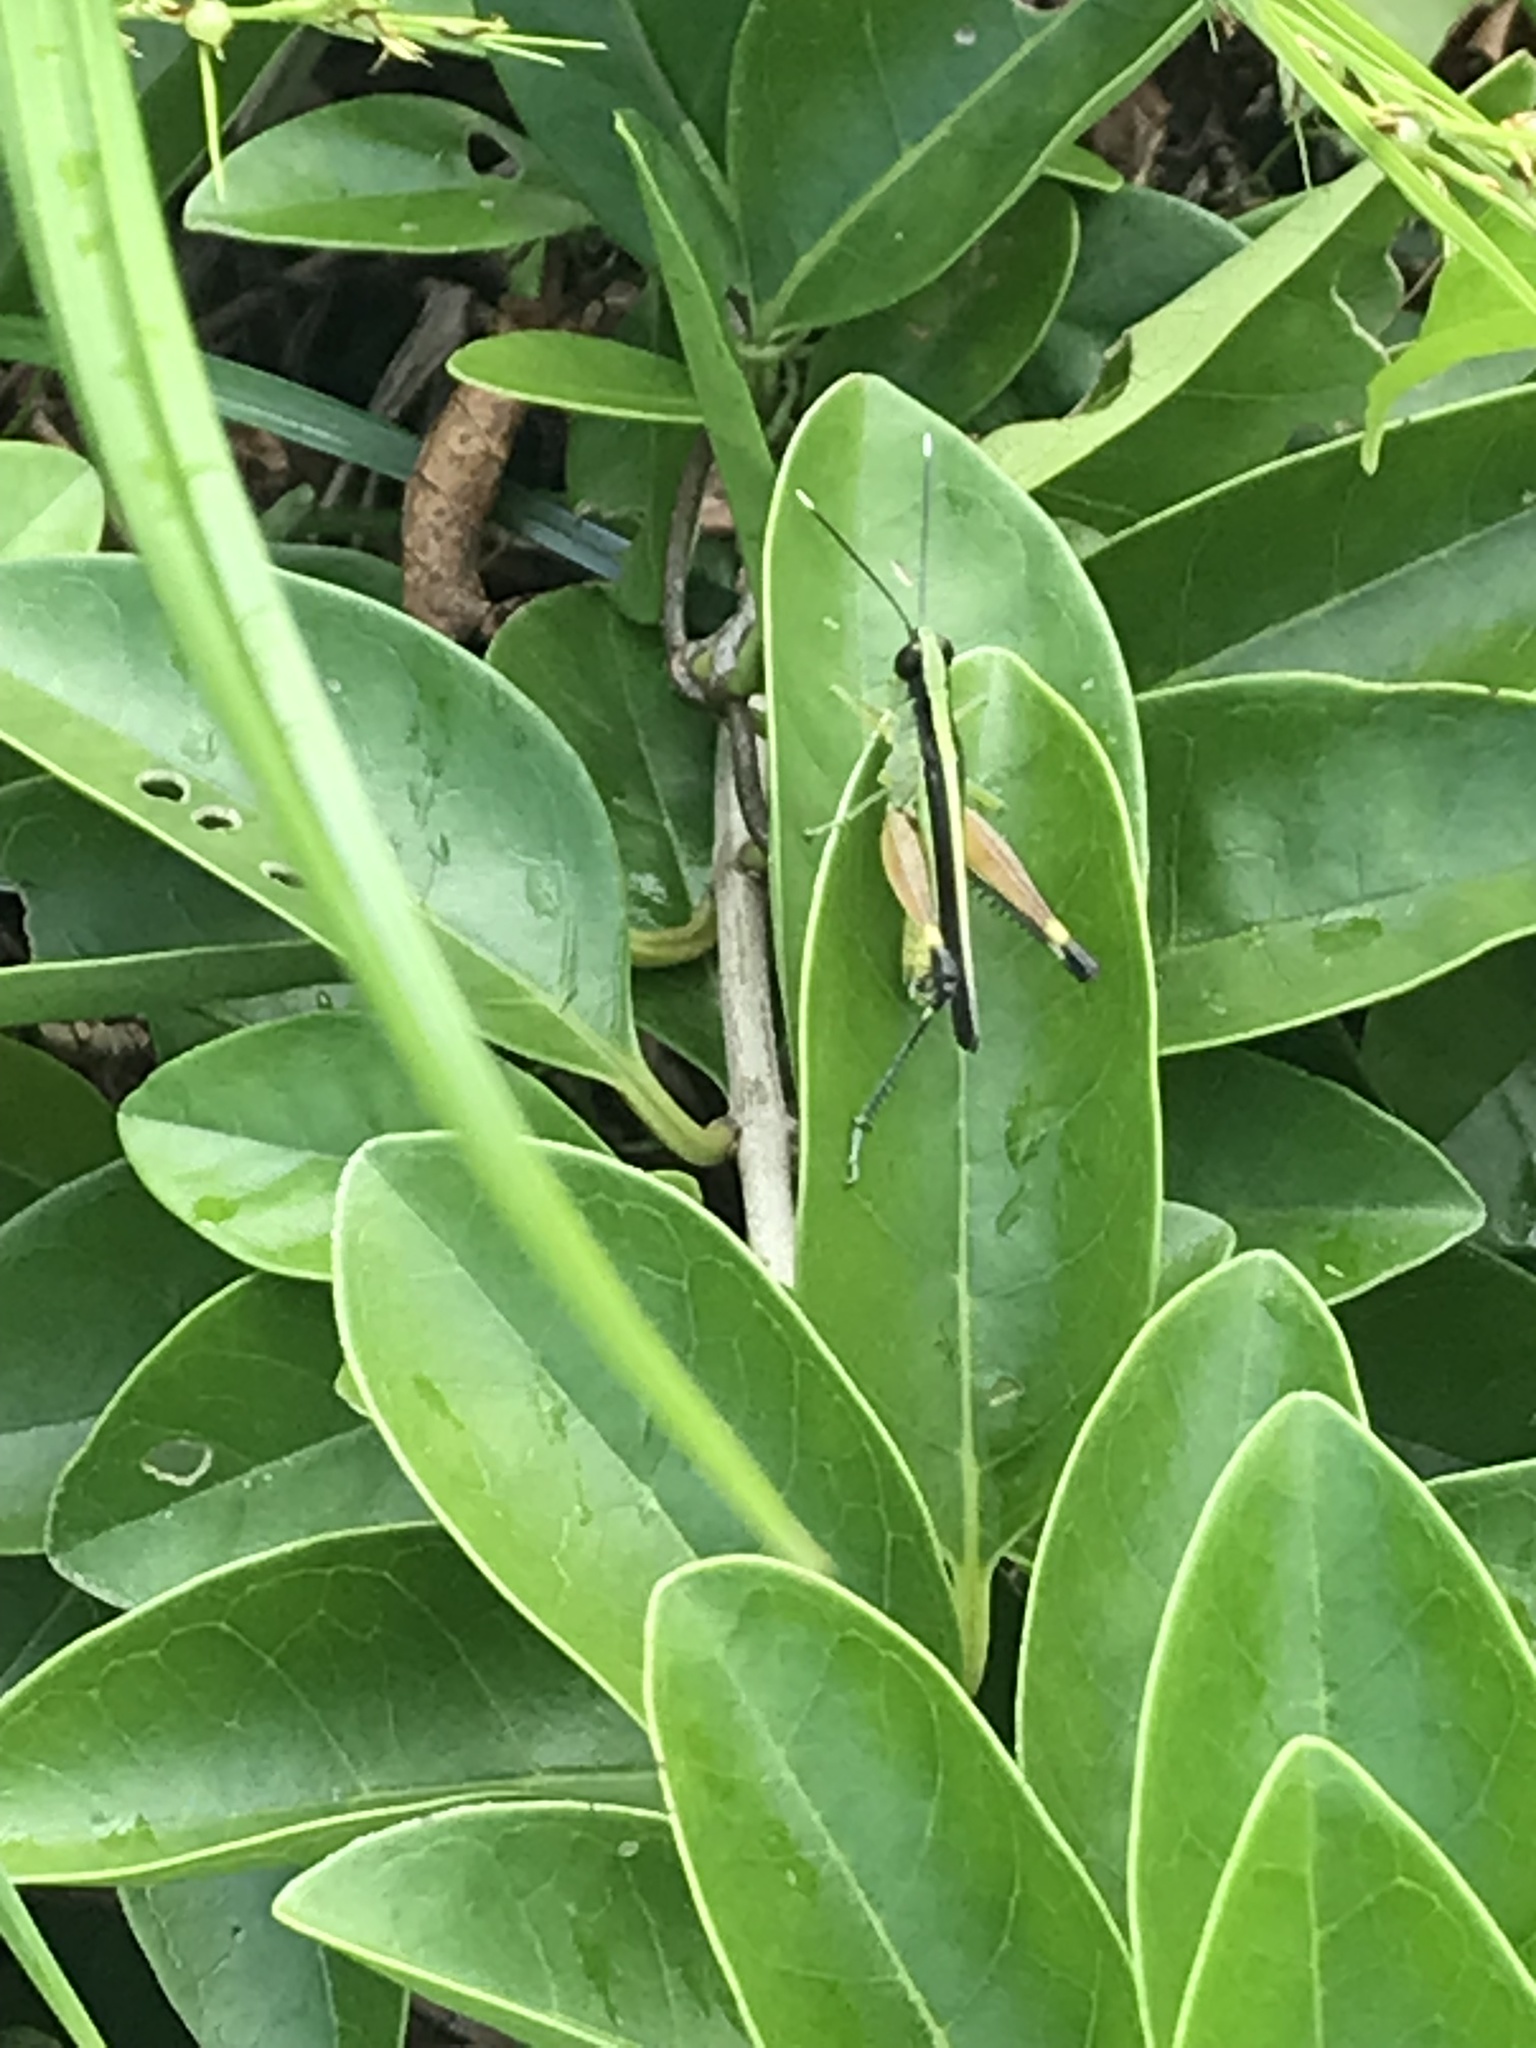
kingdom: Animalia
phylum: Arthropoda
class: Insecta
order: Orthoptera
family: Acrididae
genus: Ceracris
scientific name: Ceracris fasciata
